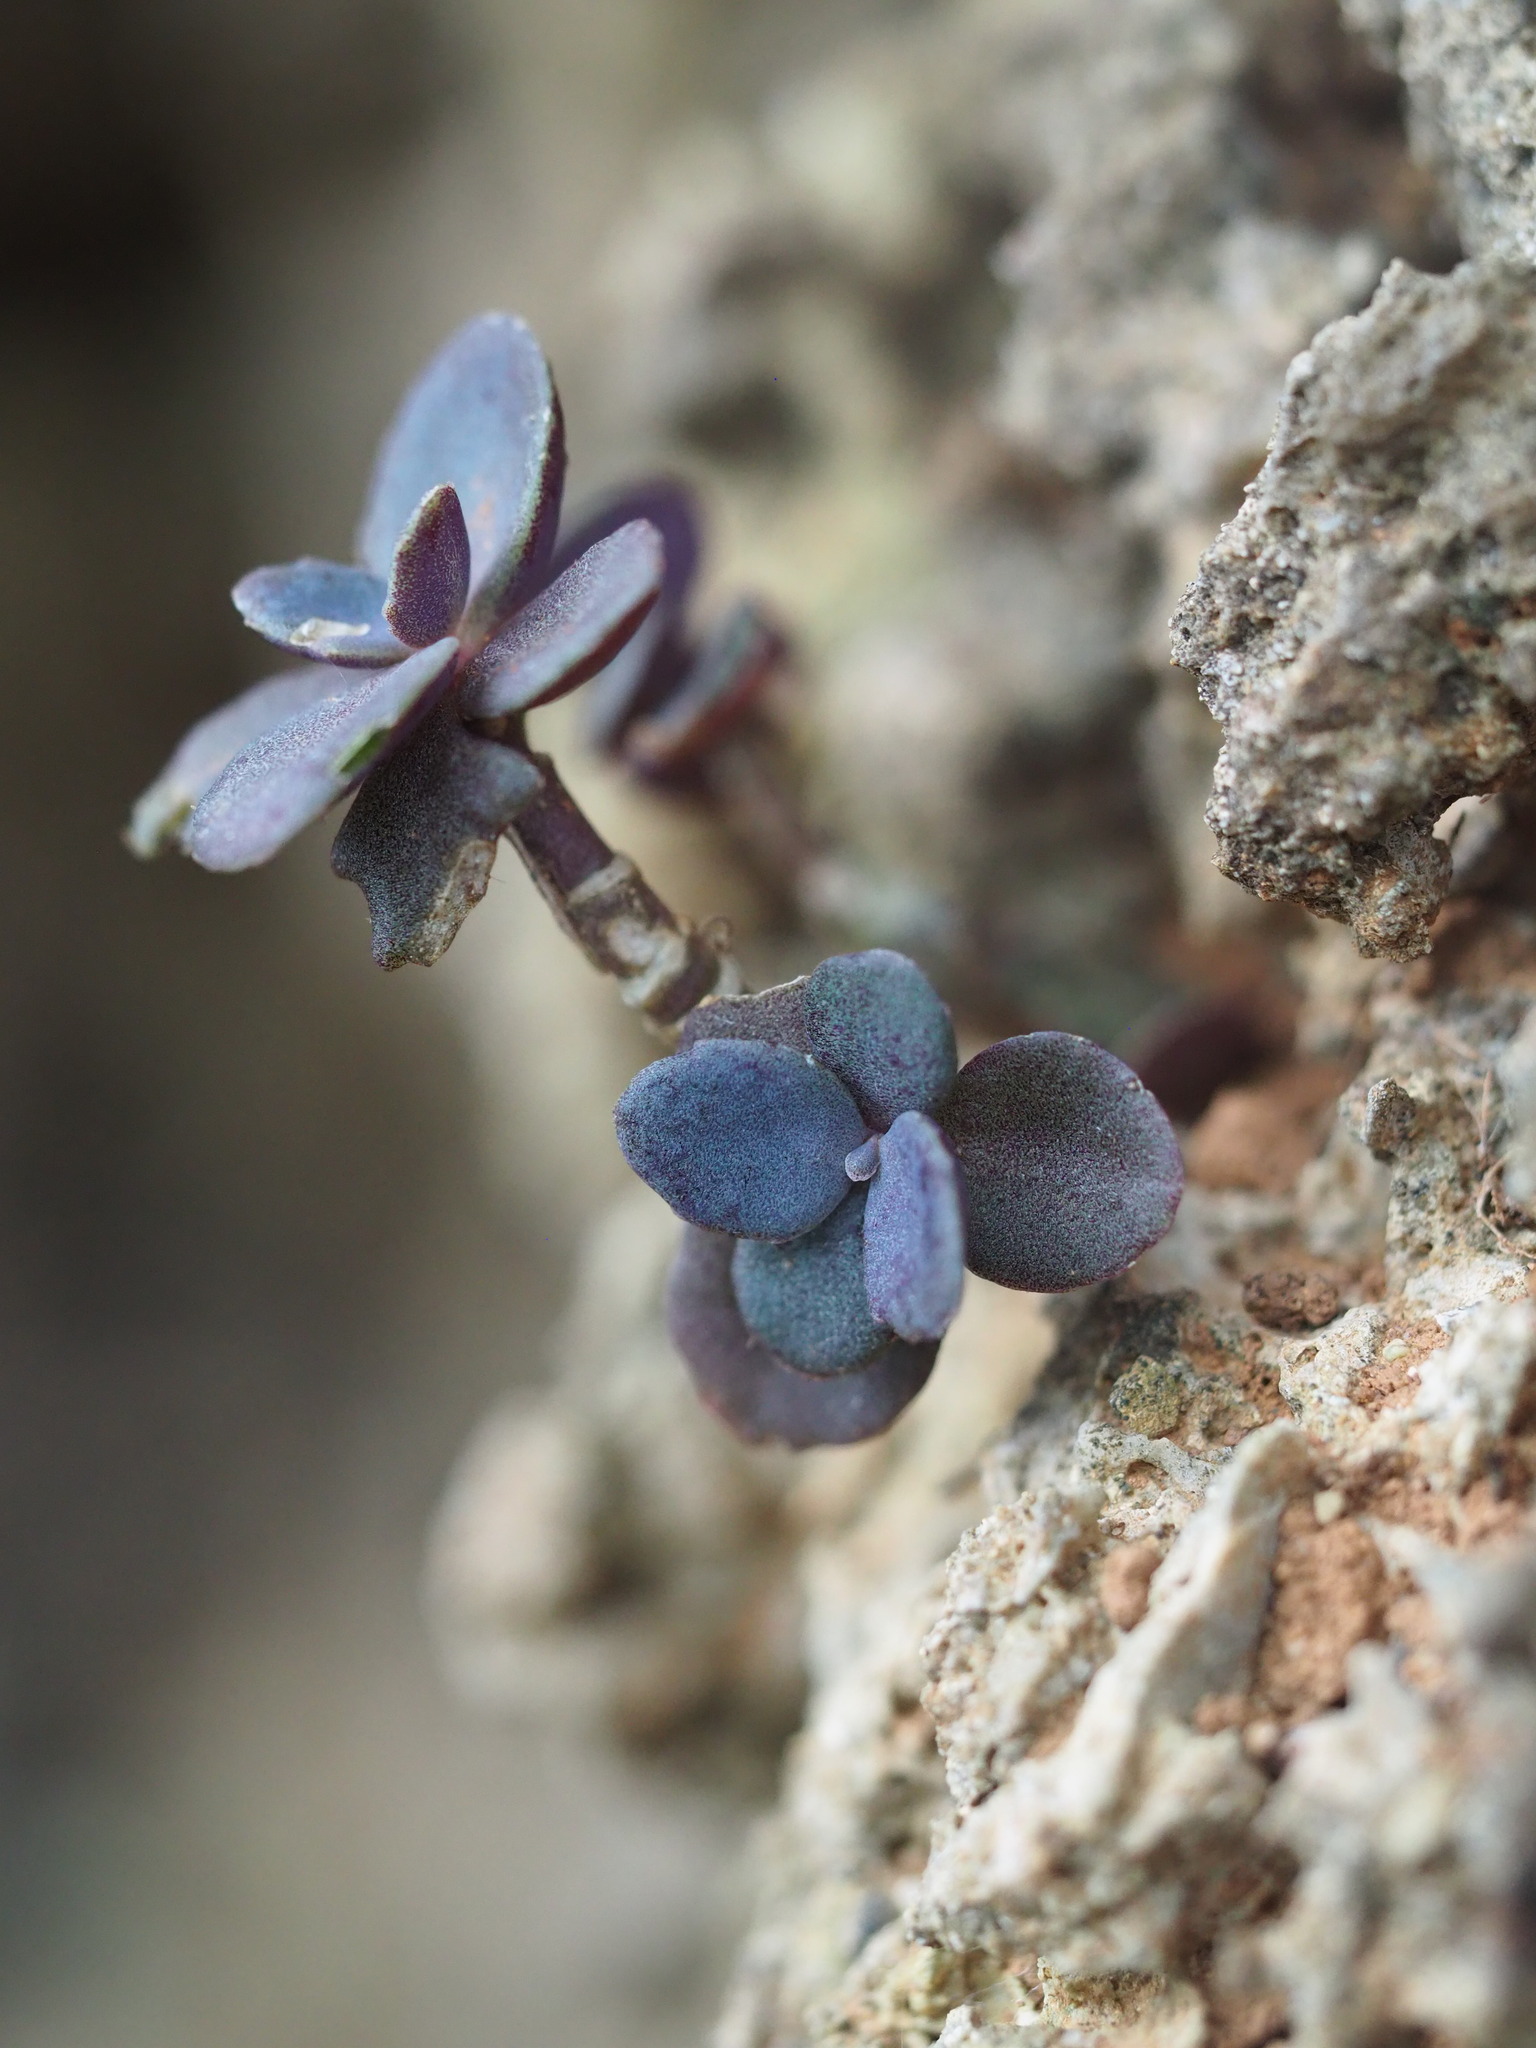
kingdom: Plantae
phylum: Tracheophyta
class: Magnoliopsida
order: Saxifragales
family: Crassulaceae
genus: Kalanchoe
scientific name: Kalanchoe integra
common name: Neverdie
